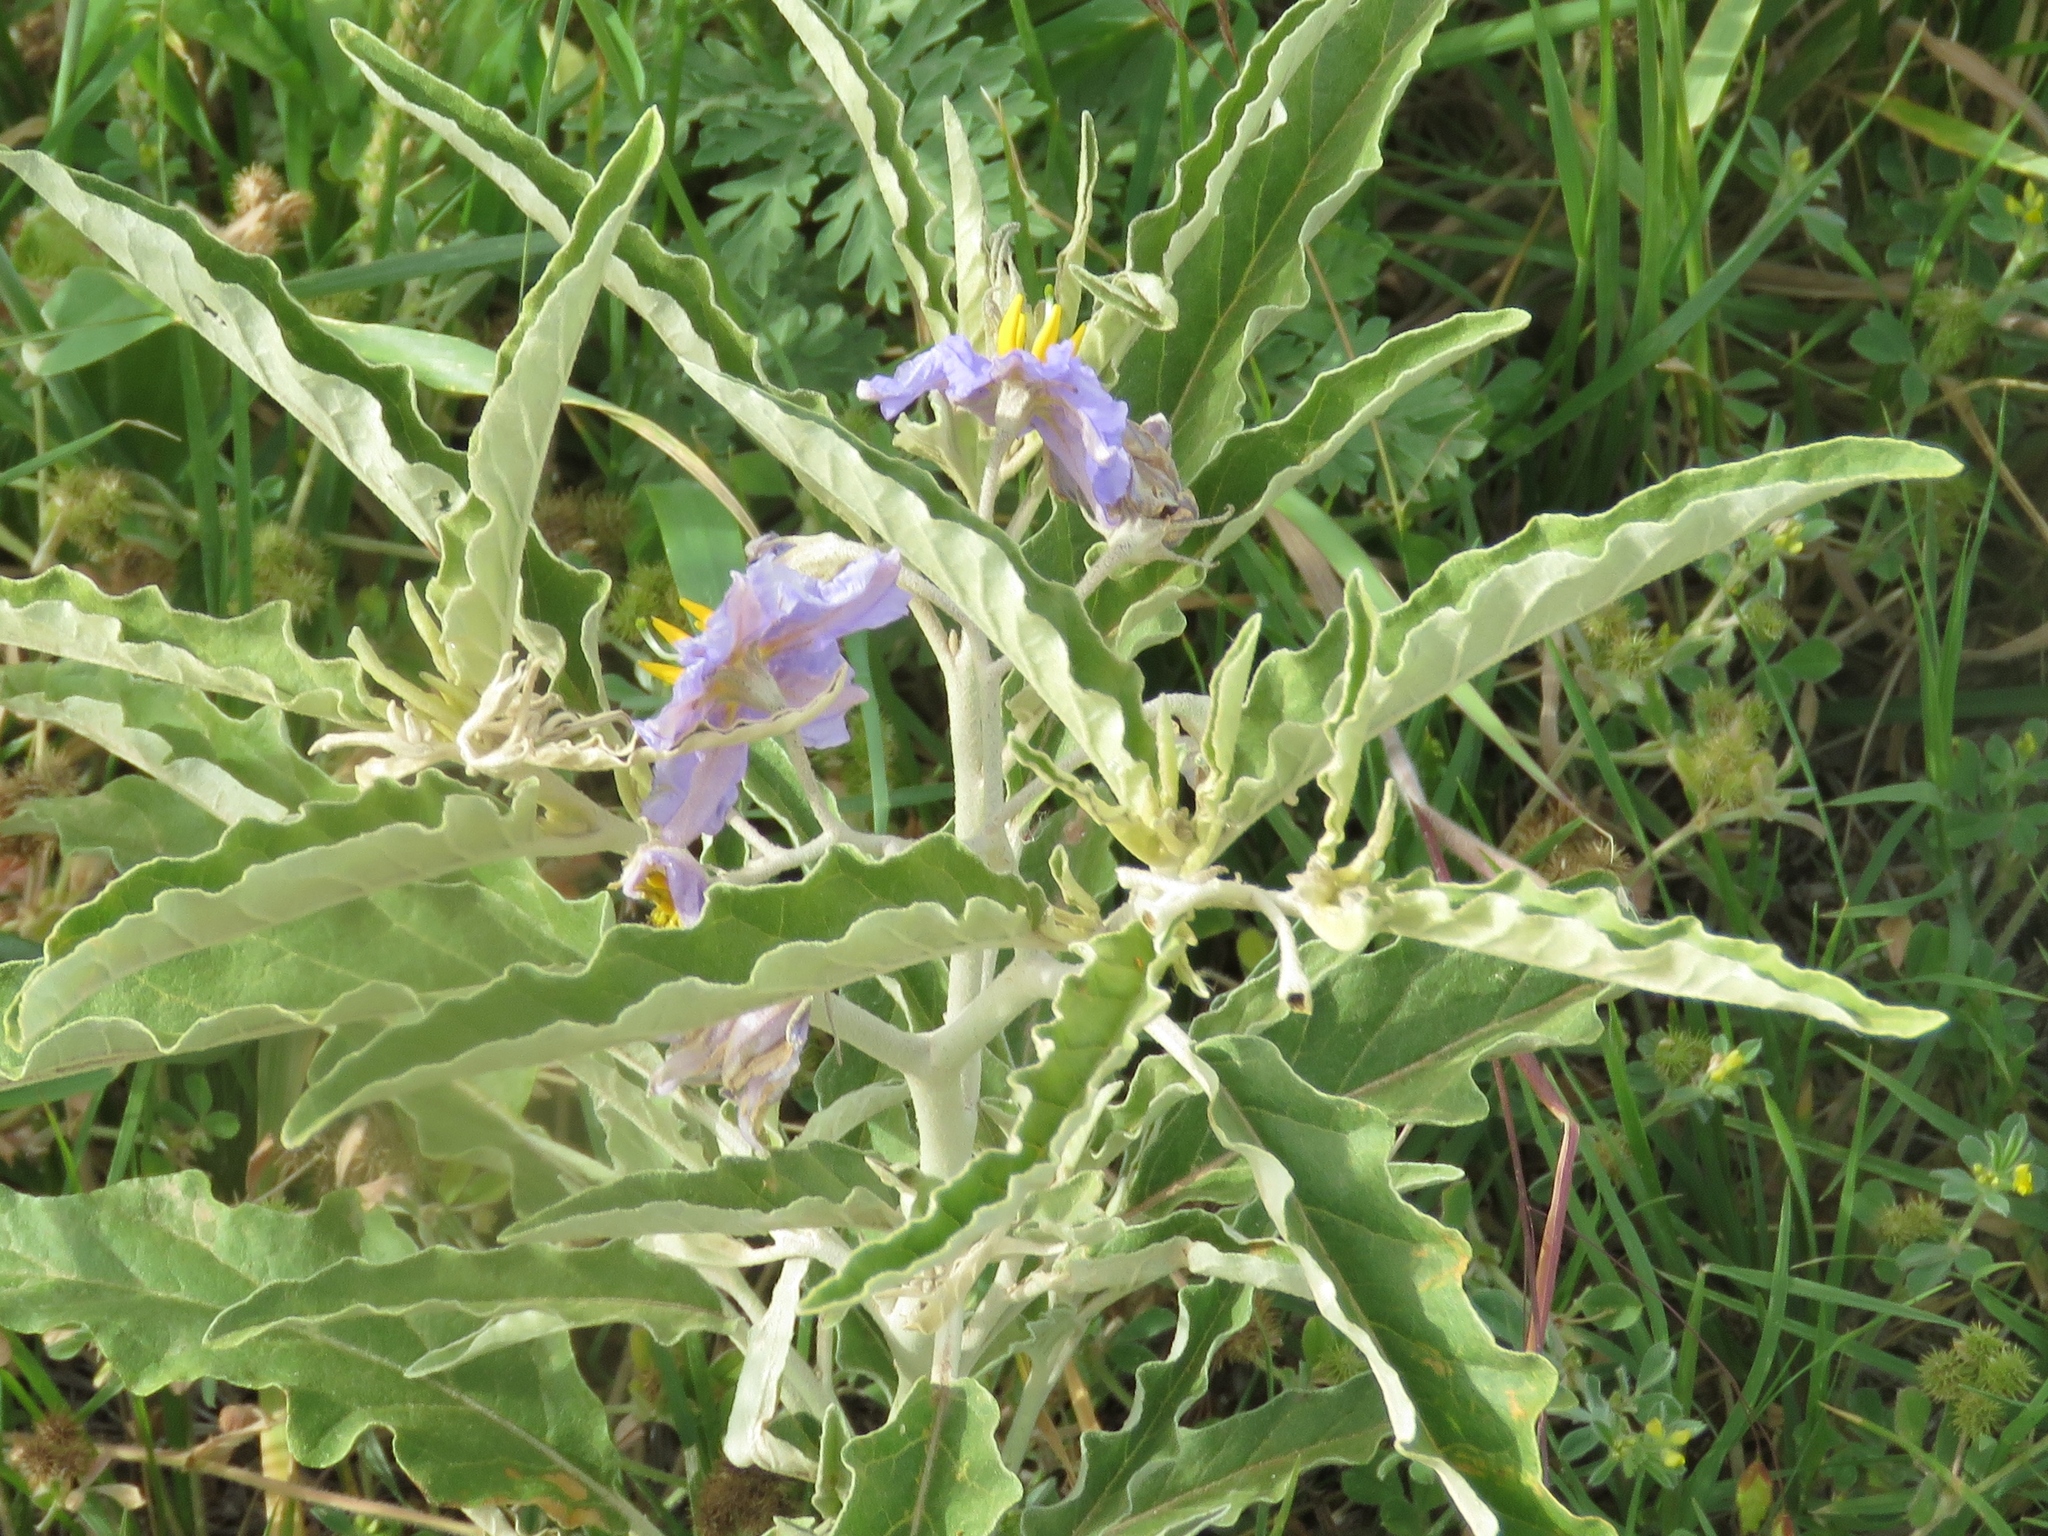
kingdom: Plantae
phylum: Tracheophyta
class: Magnoliopsida
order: Solanales
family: Solanaceae
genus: Solanum
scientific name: Solanum elaeagnifolium
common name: Silverleaf nightshade
